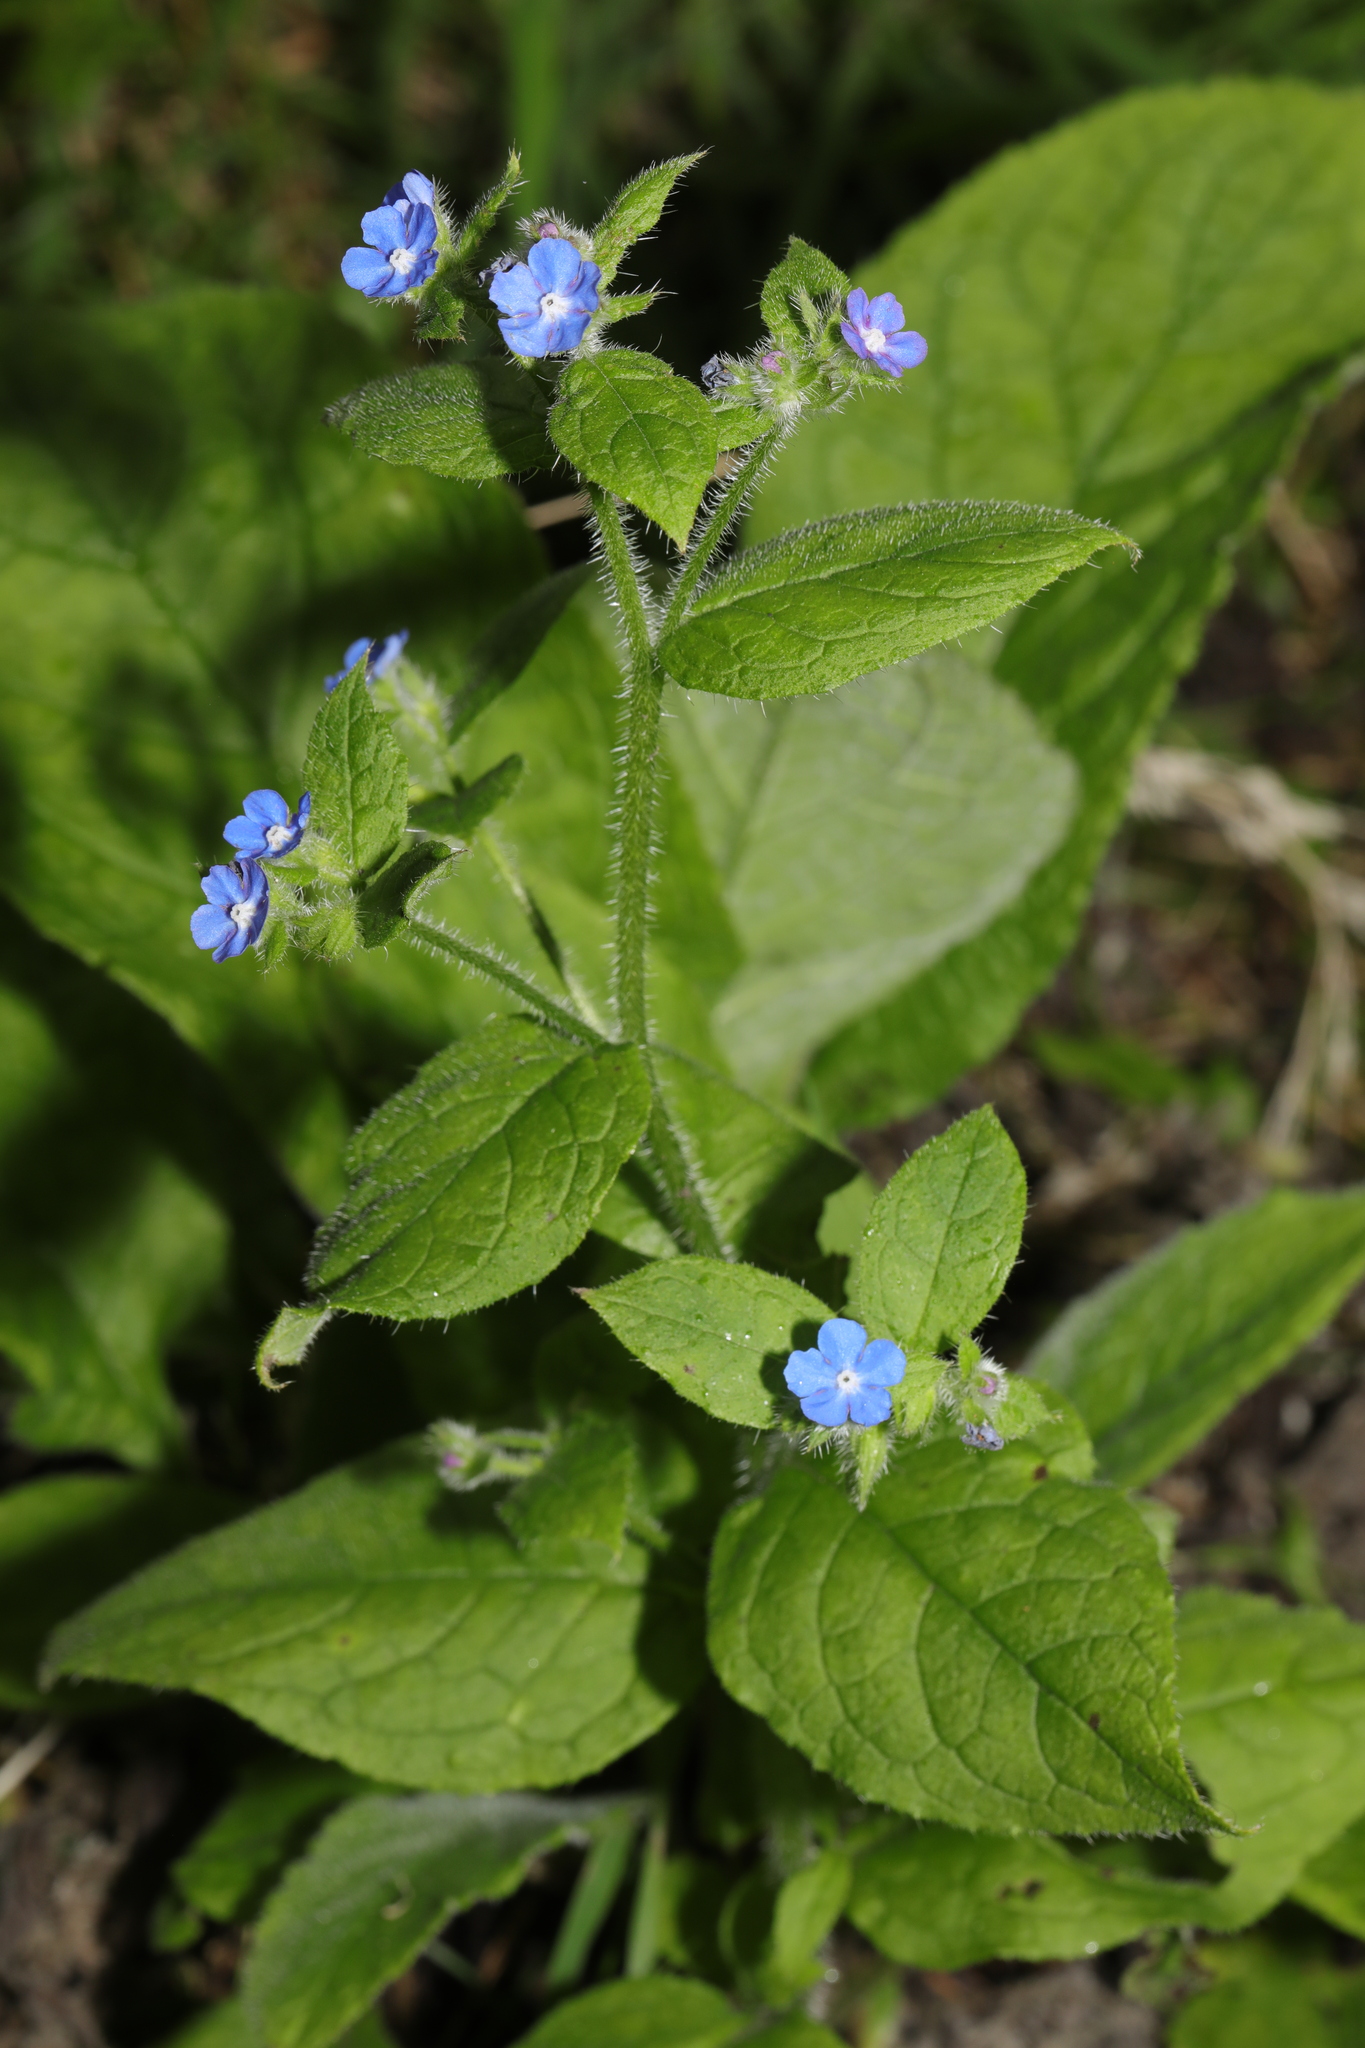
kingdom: Plantae
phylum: Tracheophyta
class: Magnoliopsida
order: Boraginales
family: Boraginaceae
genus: Pentaglottis
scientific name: Pentaglottis sempervirens
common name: Green alkanet
